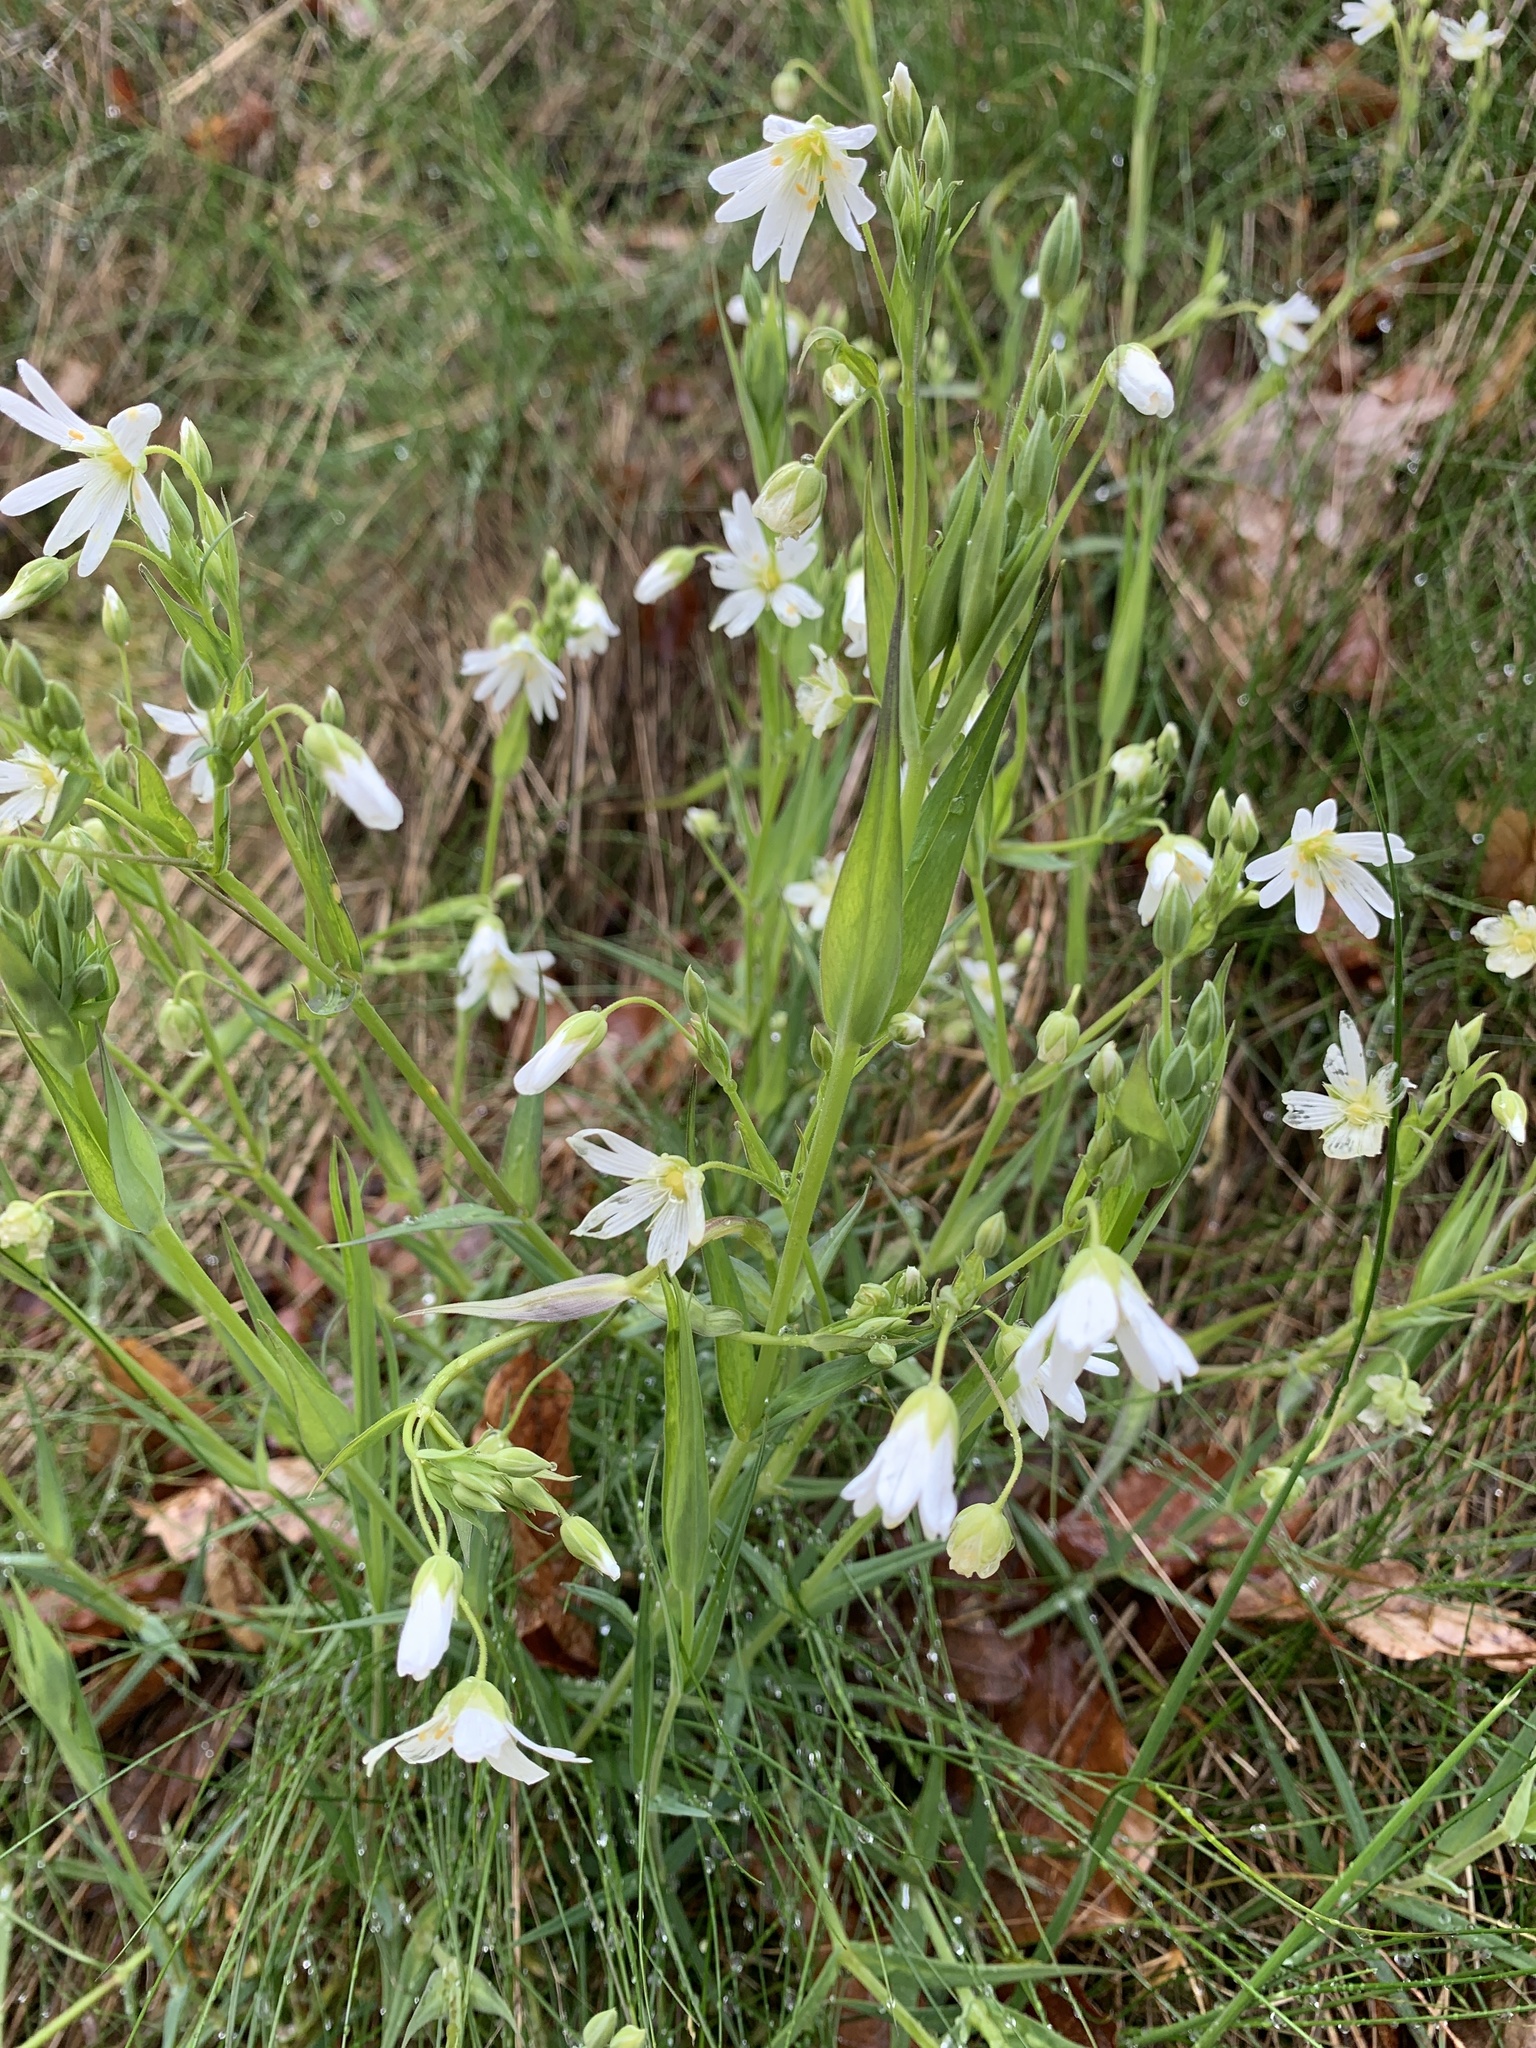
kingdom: Plantae
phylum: Tracheophyta
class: Magnoliopsida
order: Caryophyllales
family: Caryophyllaceae
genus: Rabelera
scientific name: Rabelera holostea
